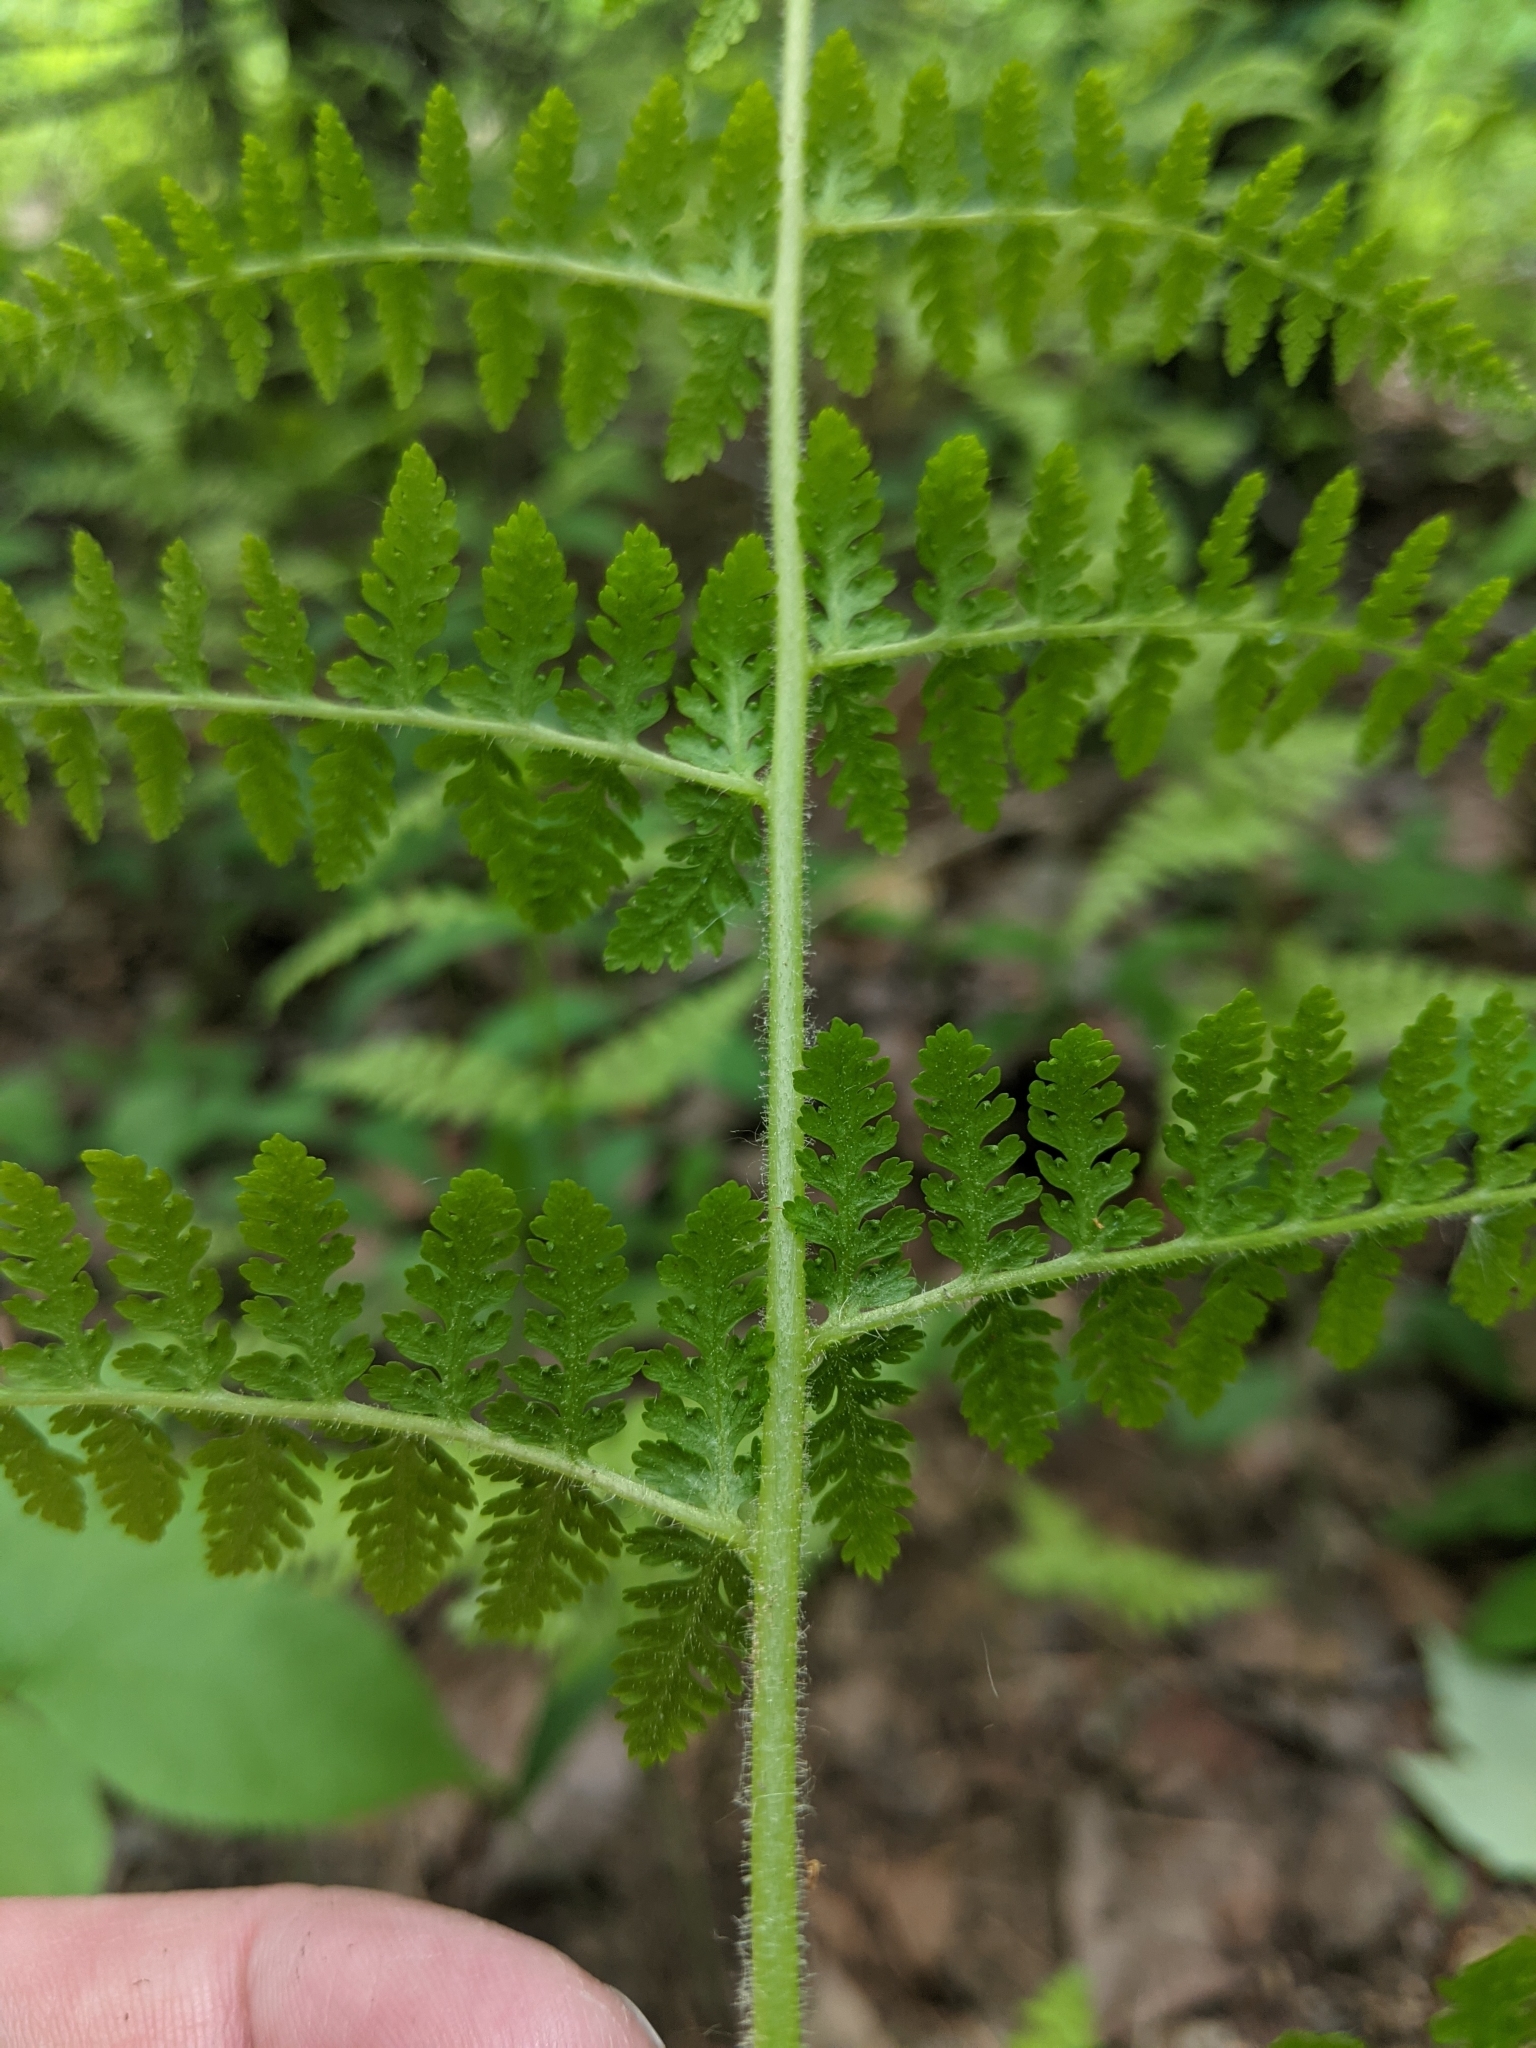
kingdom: Plantae
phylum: Tracheophyta
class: Polypodiopsida
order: Polypodiales
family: Dennstaedtiaceae
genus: Sitobolium
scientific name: Sitobolium punctilobum
